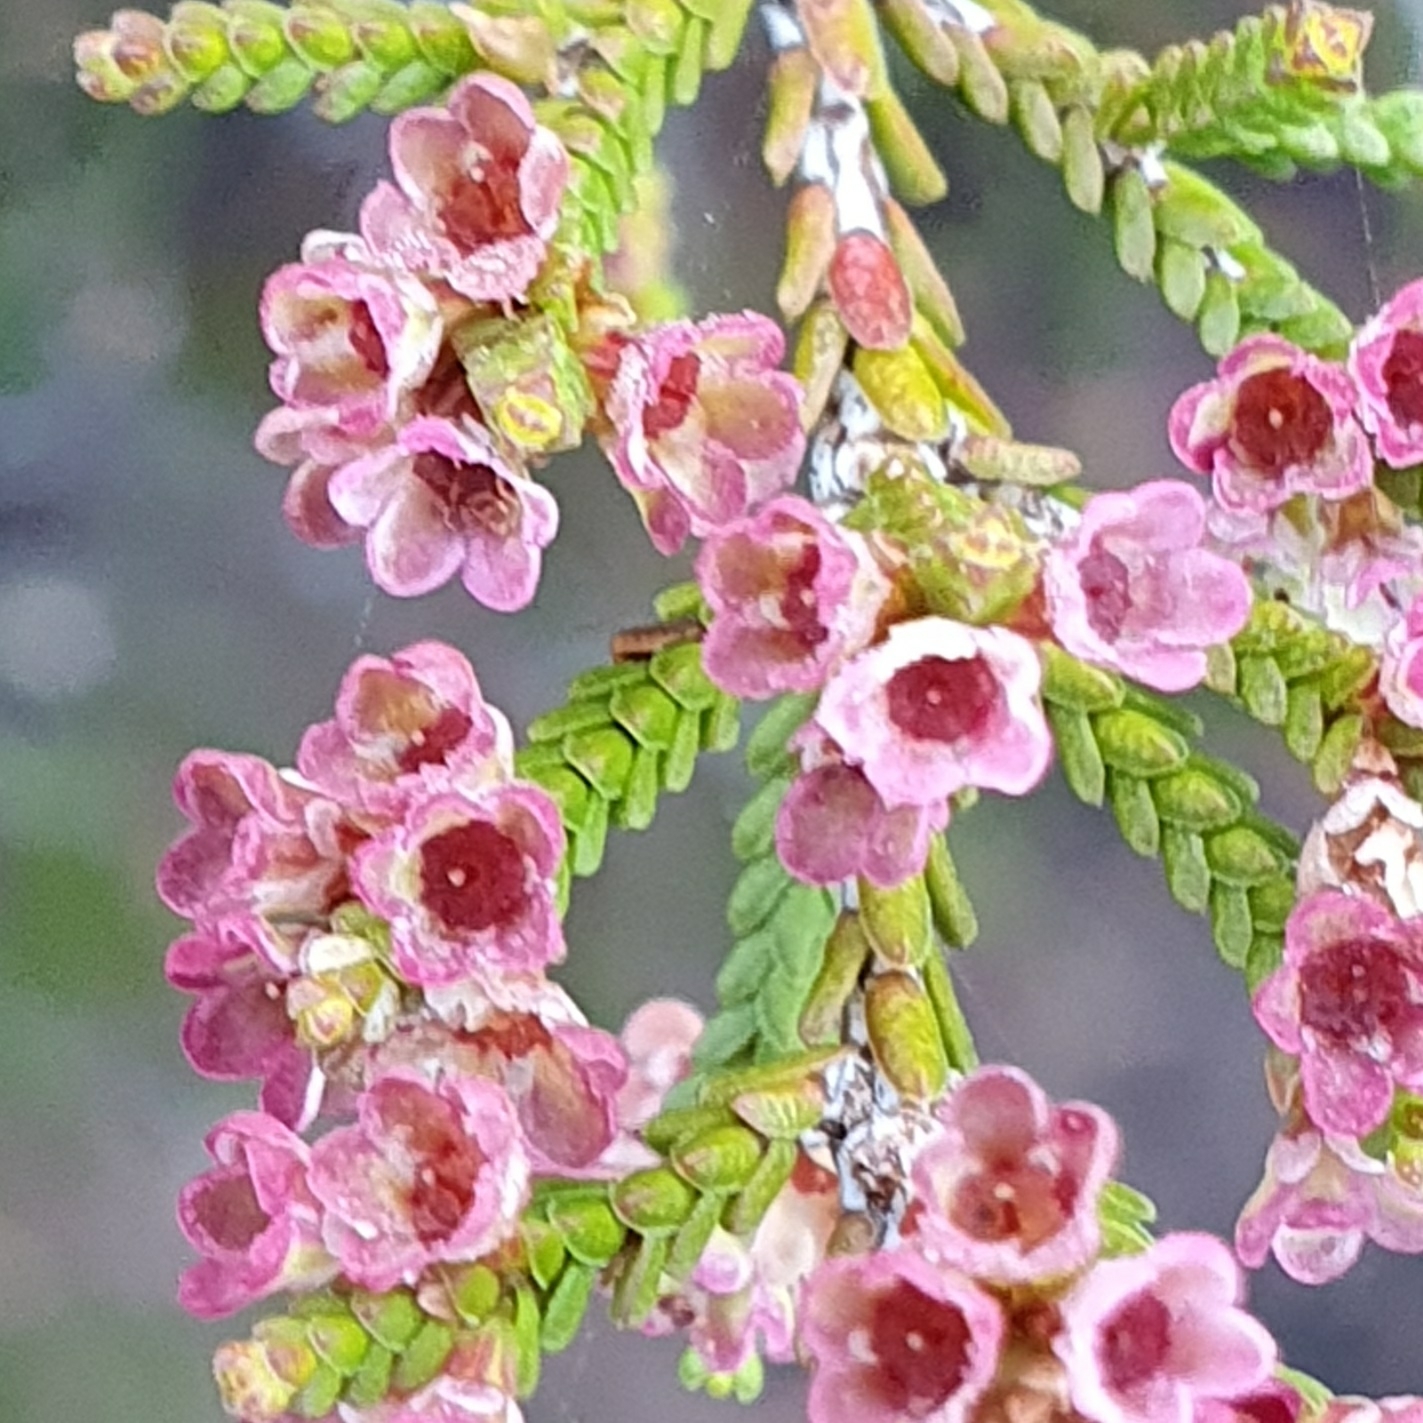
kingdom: Plantae
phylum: Tracheophyta
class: Magnoliopsida
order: Myrtales
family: Myrtaceae
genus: Micromyrtus
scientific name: Micromyrtus ciliata
